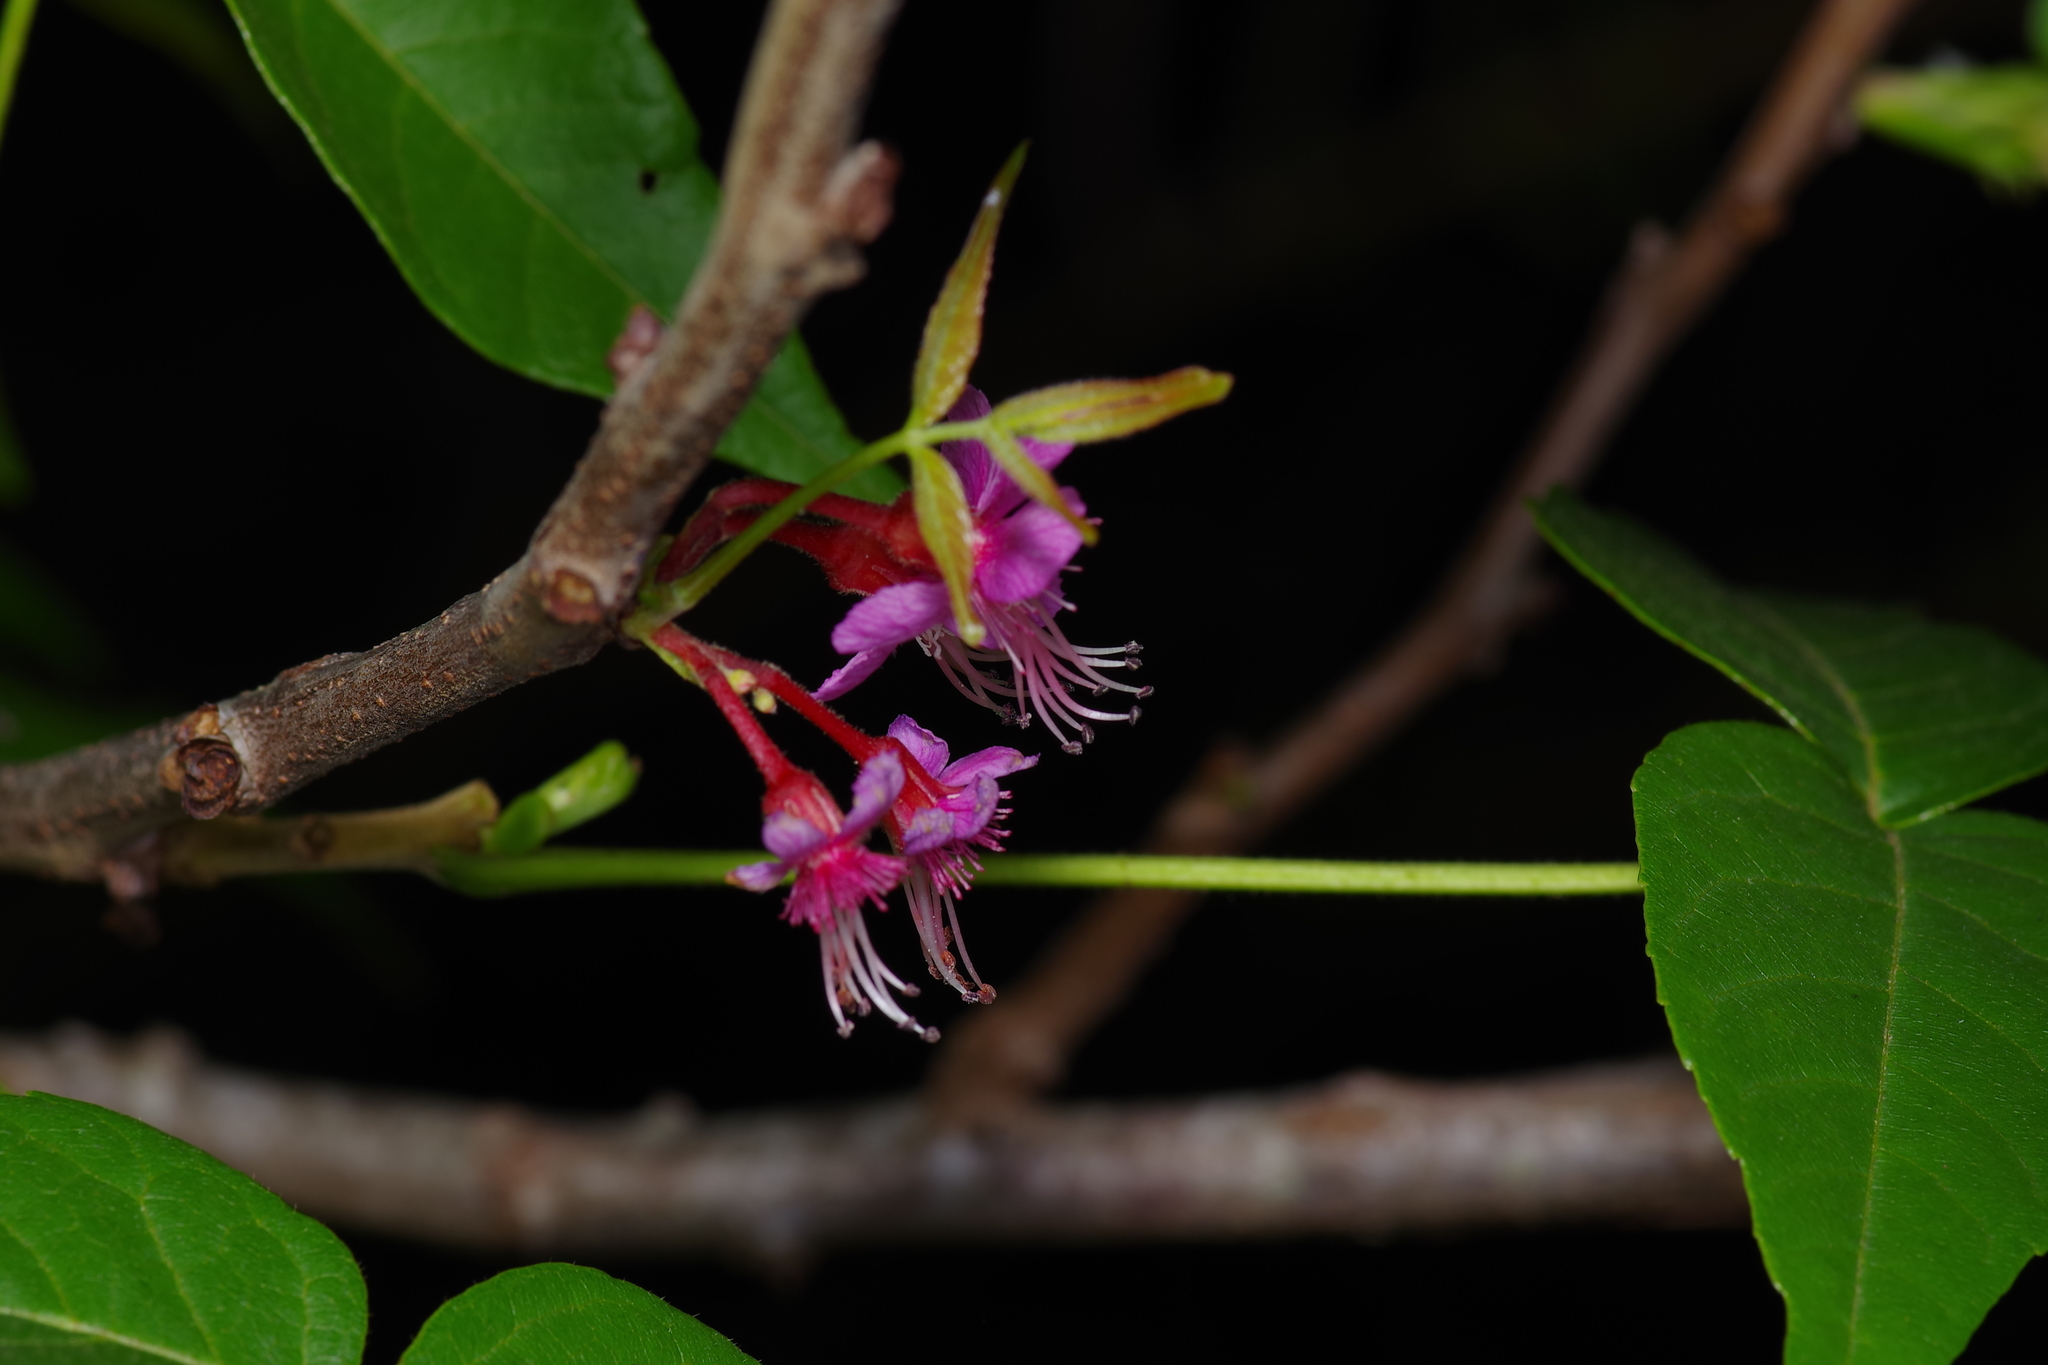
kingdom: Plantae
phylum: Tracheophyta
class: Magnoliopsida
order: Sapindales
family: Sapindaceae
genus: Ungnadia
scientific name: Ungnadia speciosa
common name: Texas-buckeye
